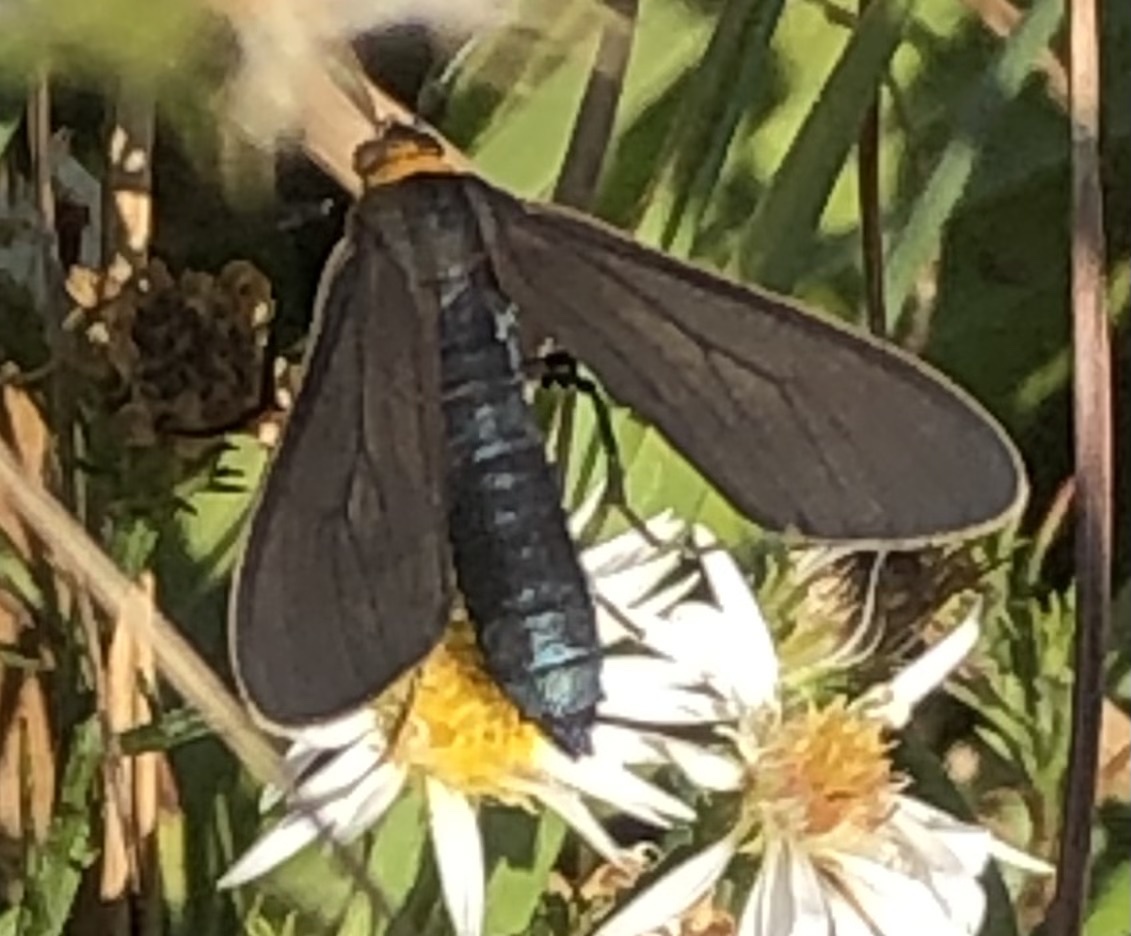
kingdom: Animalia
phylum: Arthropoda
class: Insecta
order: Lepidoptera
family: Erebidae
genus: Cisseps
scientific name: Cisseps fulvicollis
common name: Yellow-collared scape moth
